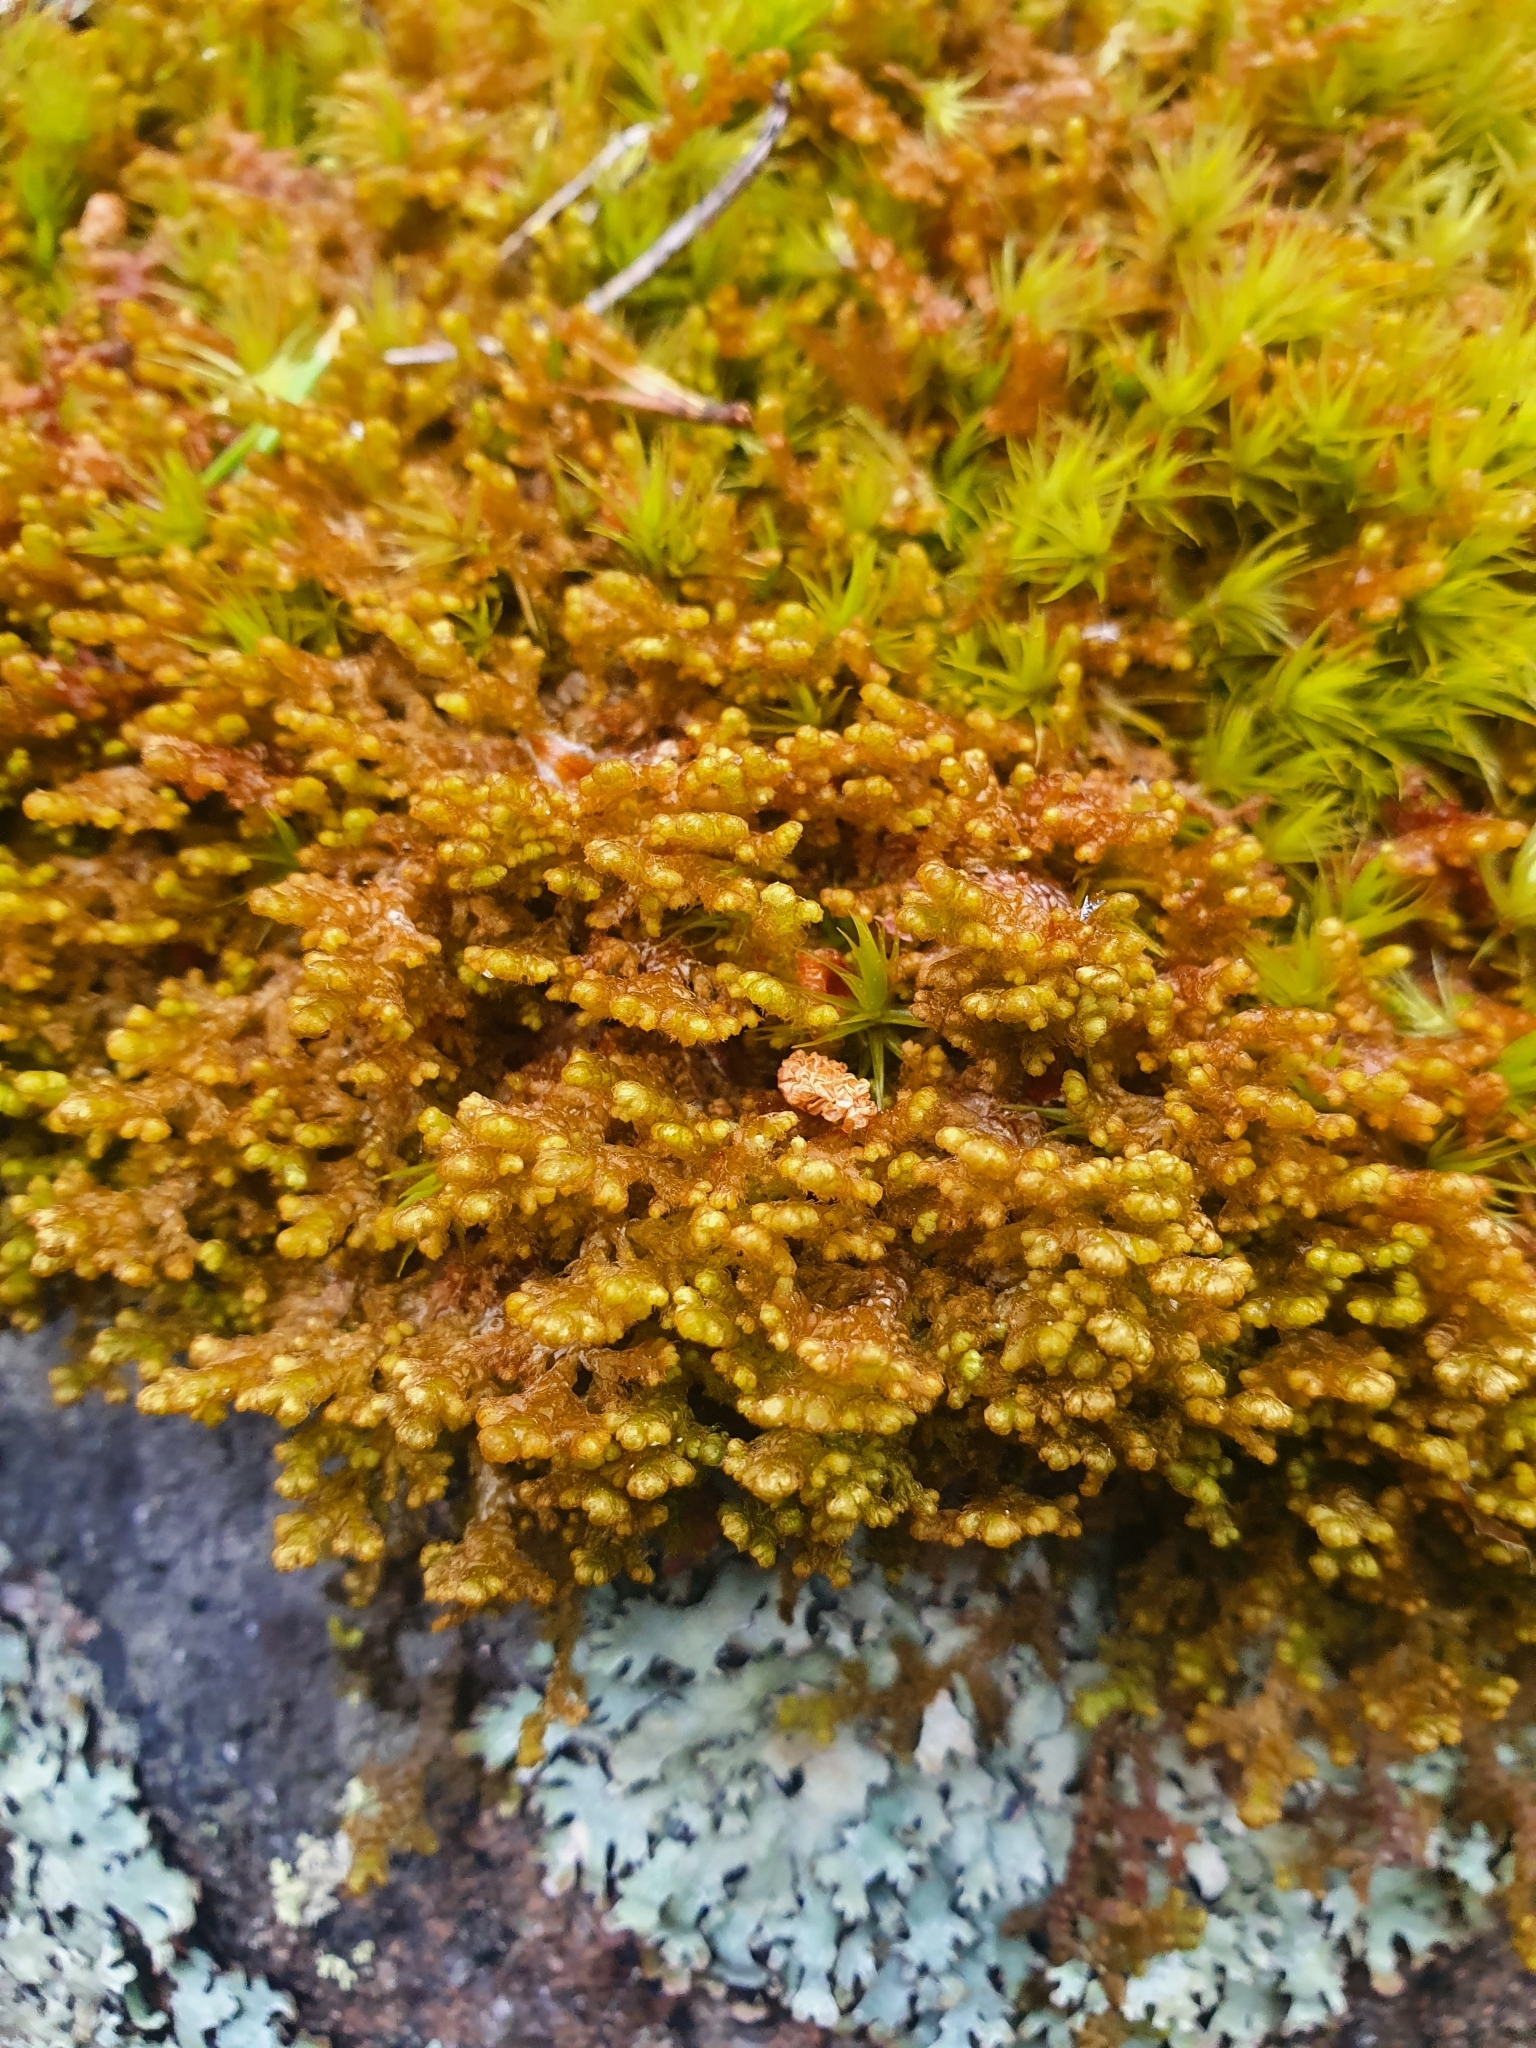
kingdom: Plantae
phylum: Marchantiophyta
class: Jungermanniopsida
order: Ptilidiales
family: Ptilidiaceae
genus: Ptilidium
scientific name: Ptilidium ciliare
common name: Ciliate fringewort
